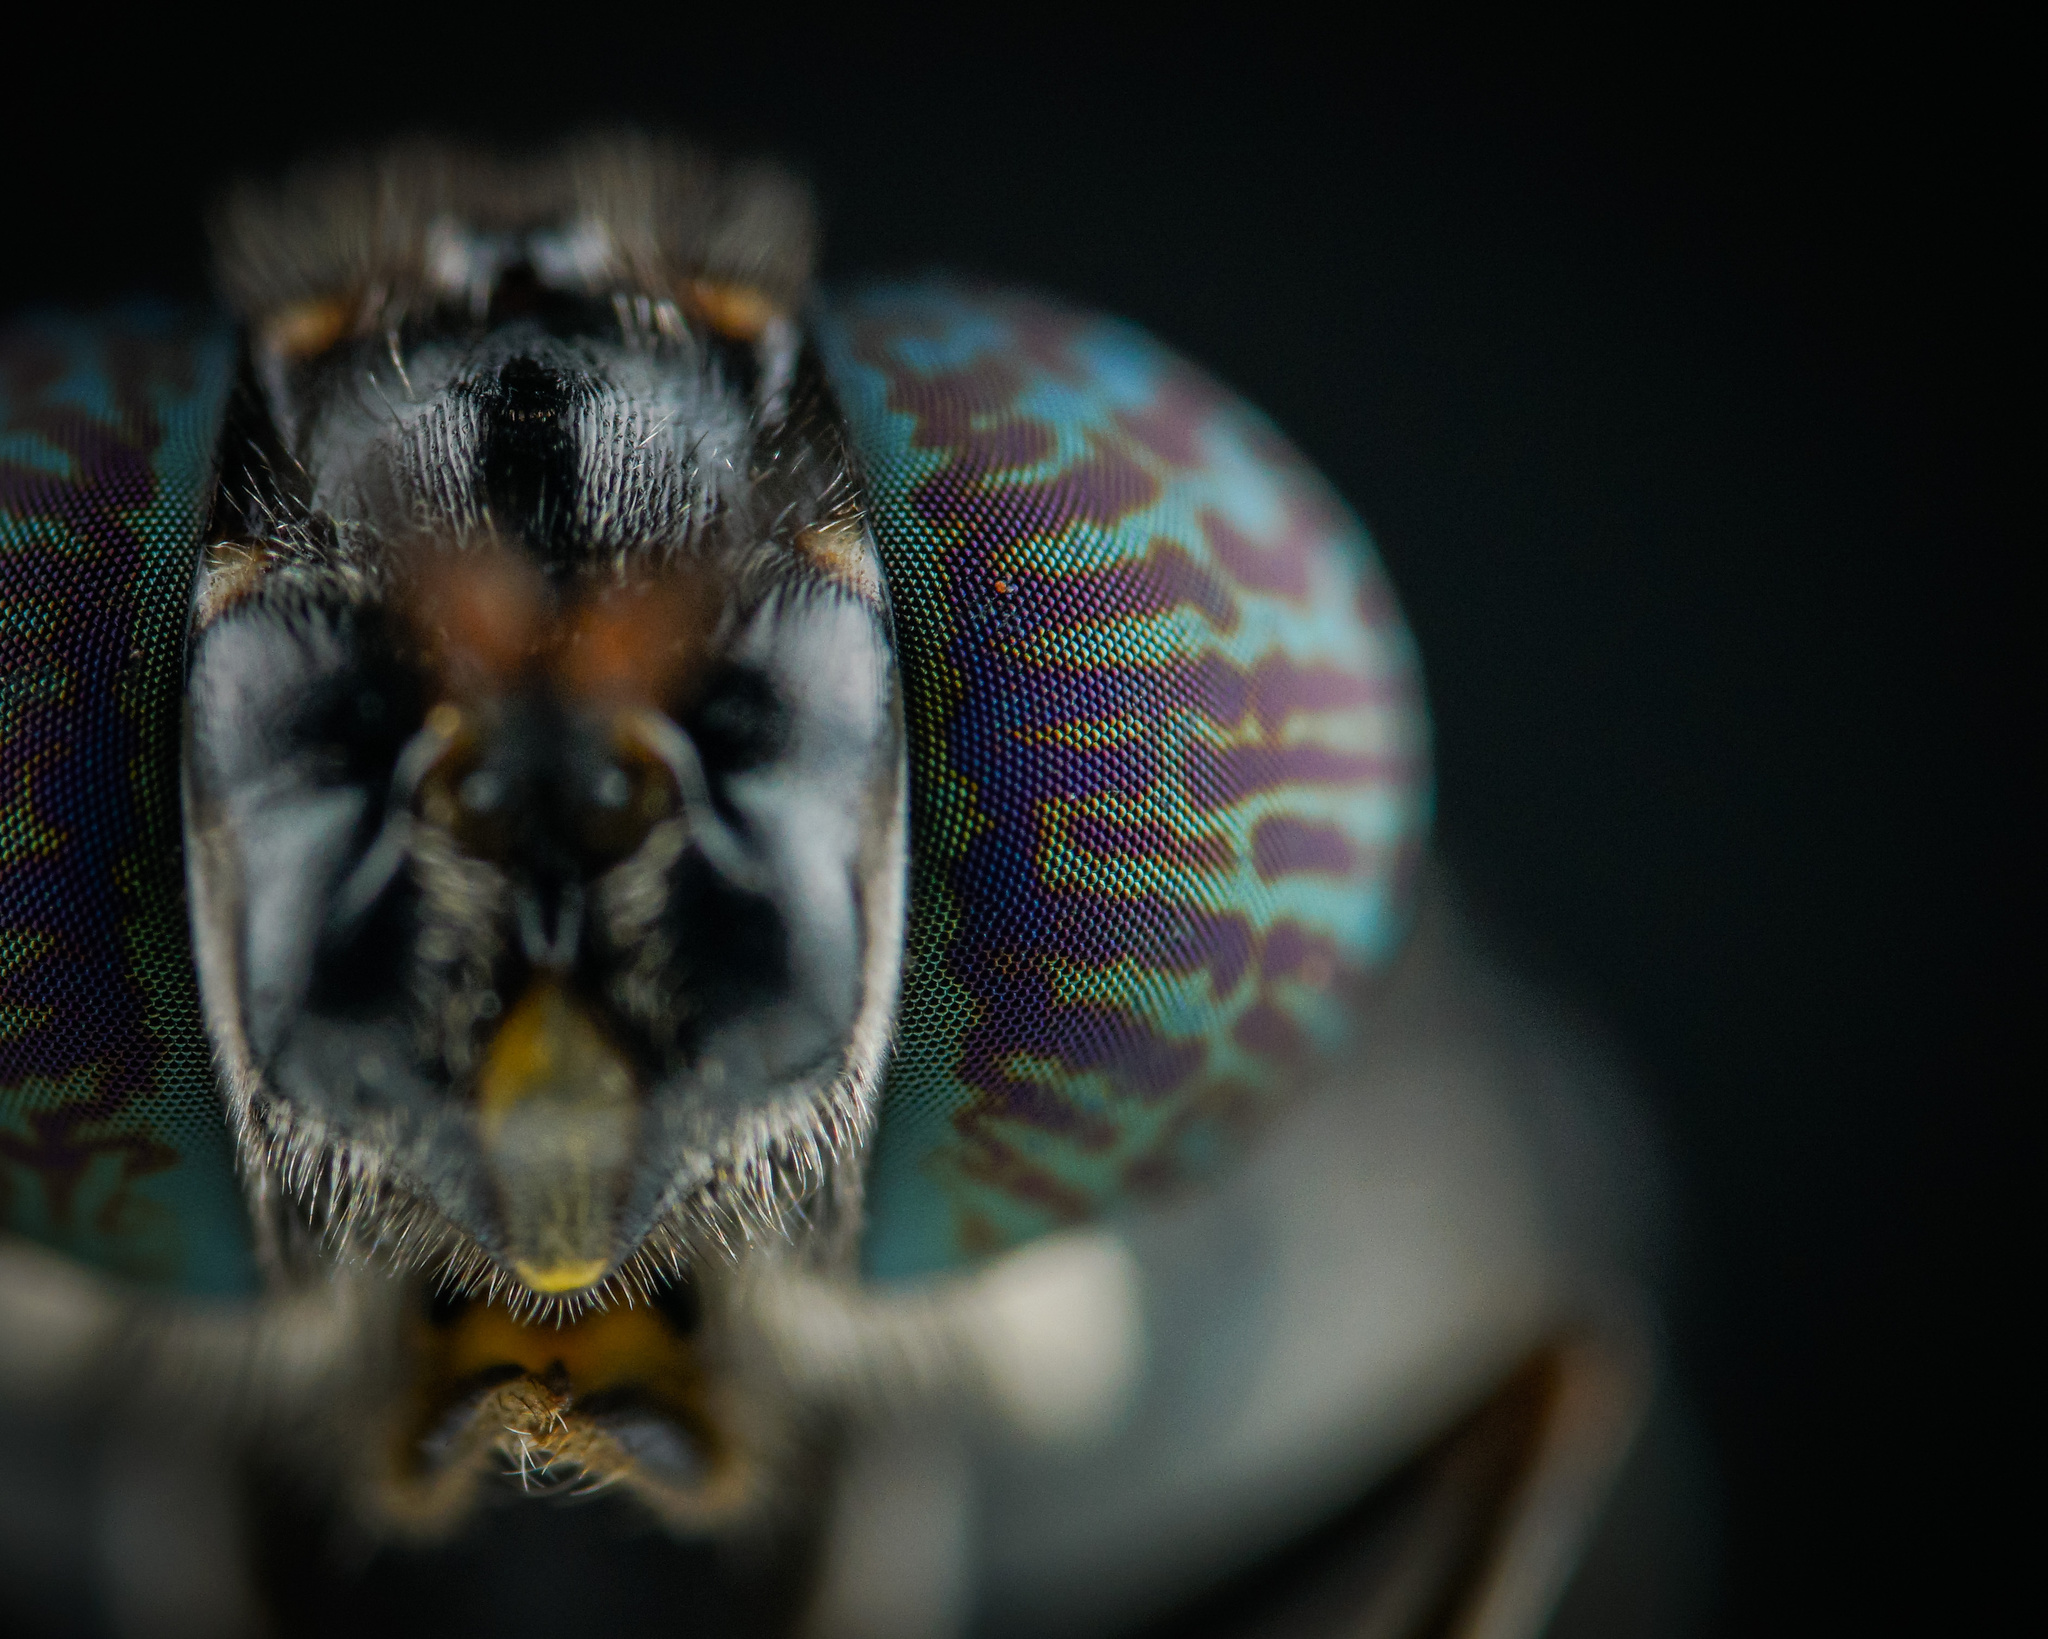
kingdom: Animalia
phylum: Arthropoda
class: Insecta
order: Diptera
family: Stratiomyidae
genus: Hermetia
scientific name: Hermetia illucens
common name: Black soldier fly
